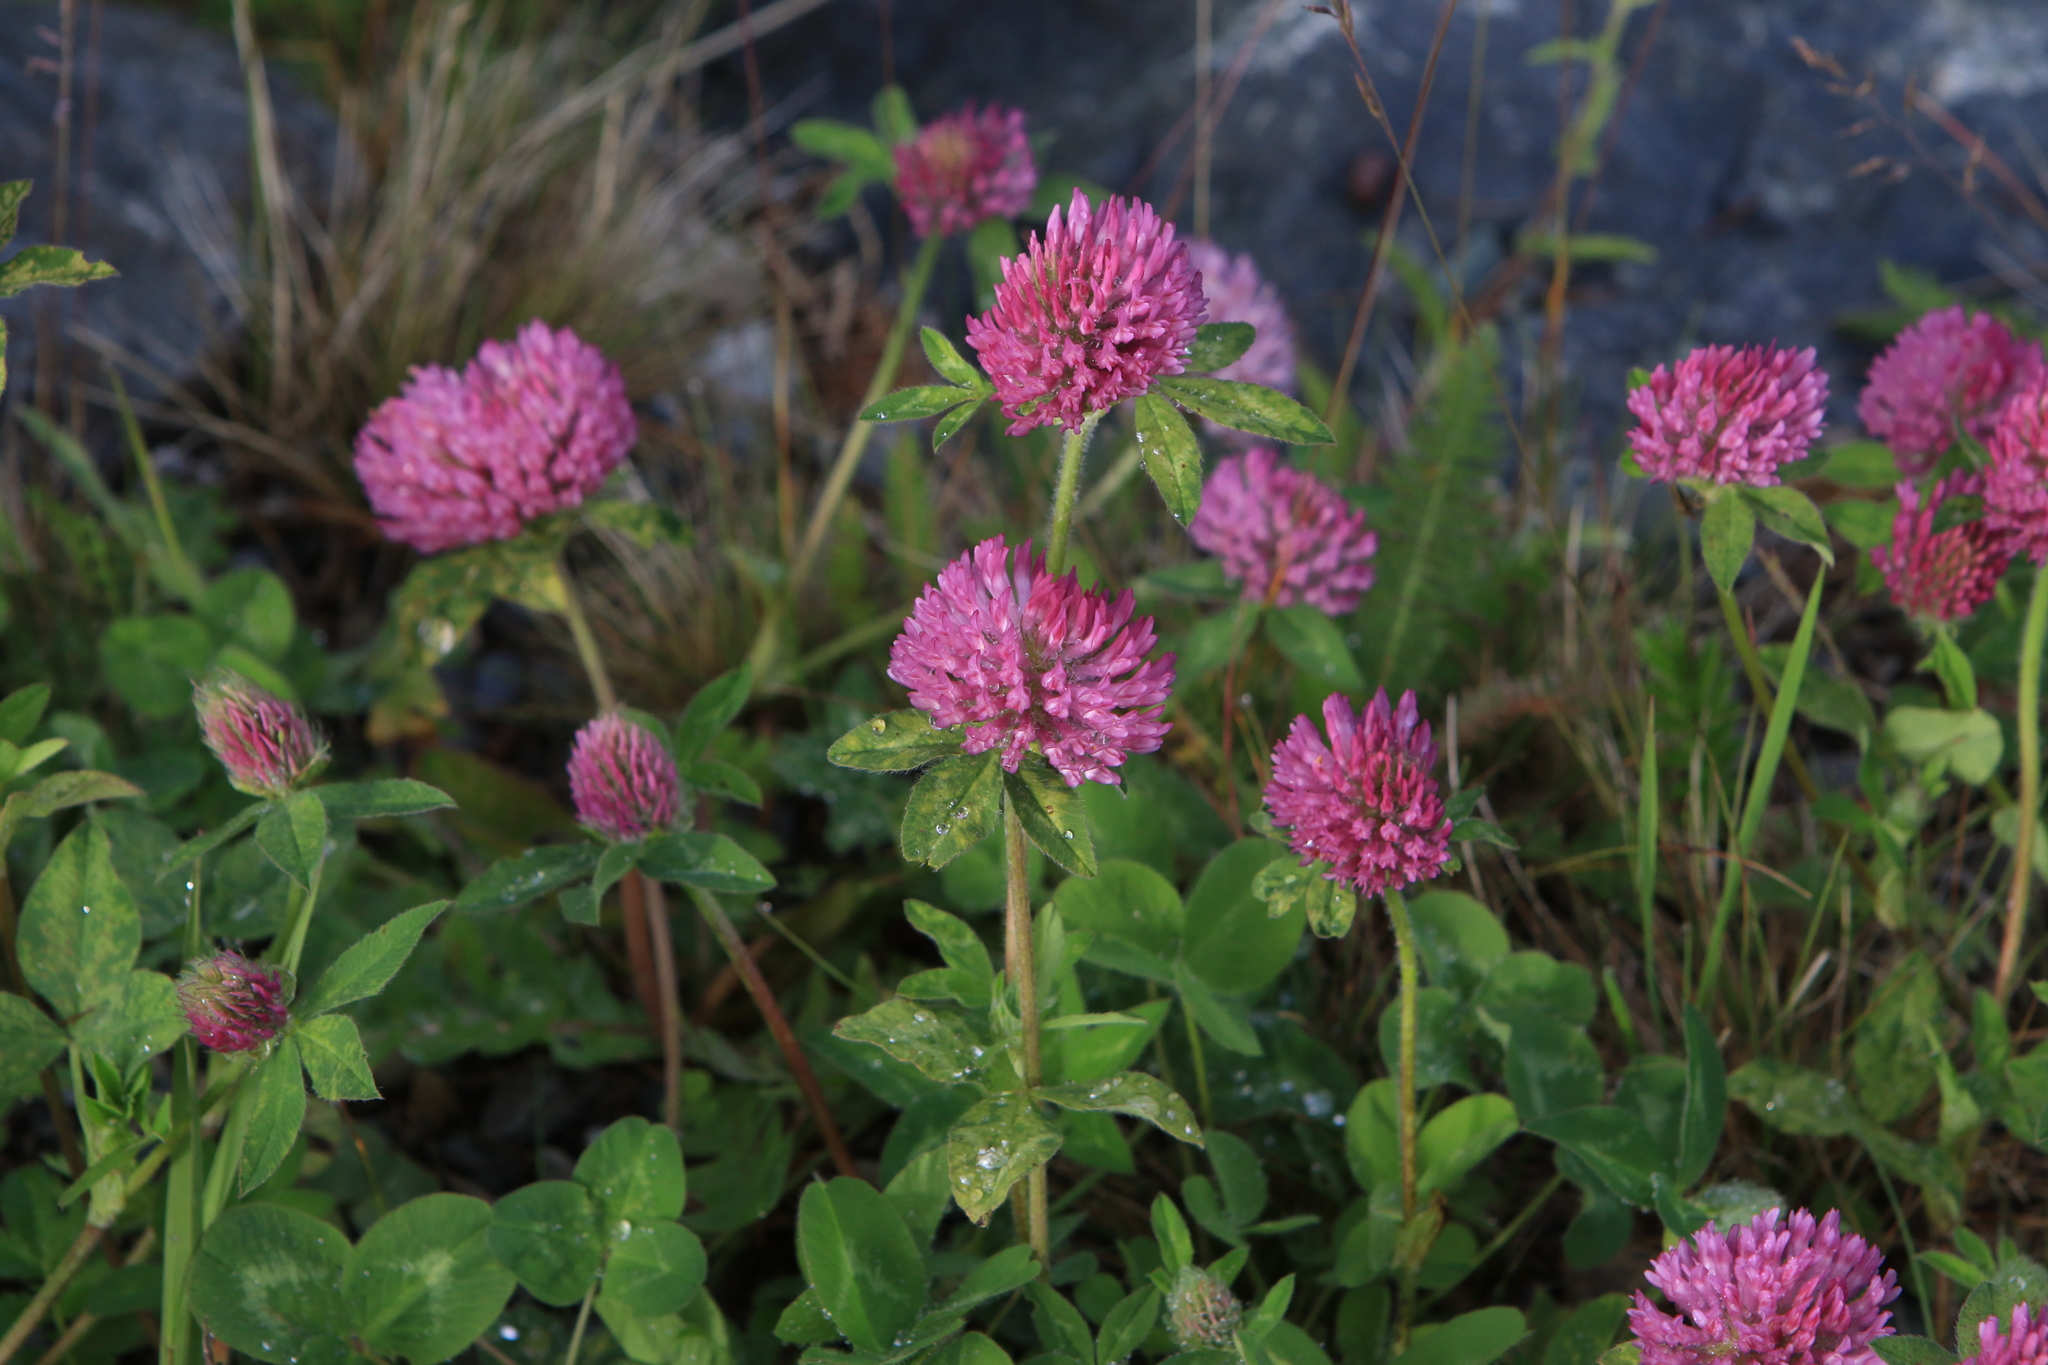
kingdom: Plantae
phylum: Tracheophyta
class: Magnoliopsida
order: Fabales
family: Fabaceae
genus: Trifolium
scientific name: Trifolium pratense
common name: Red clover
